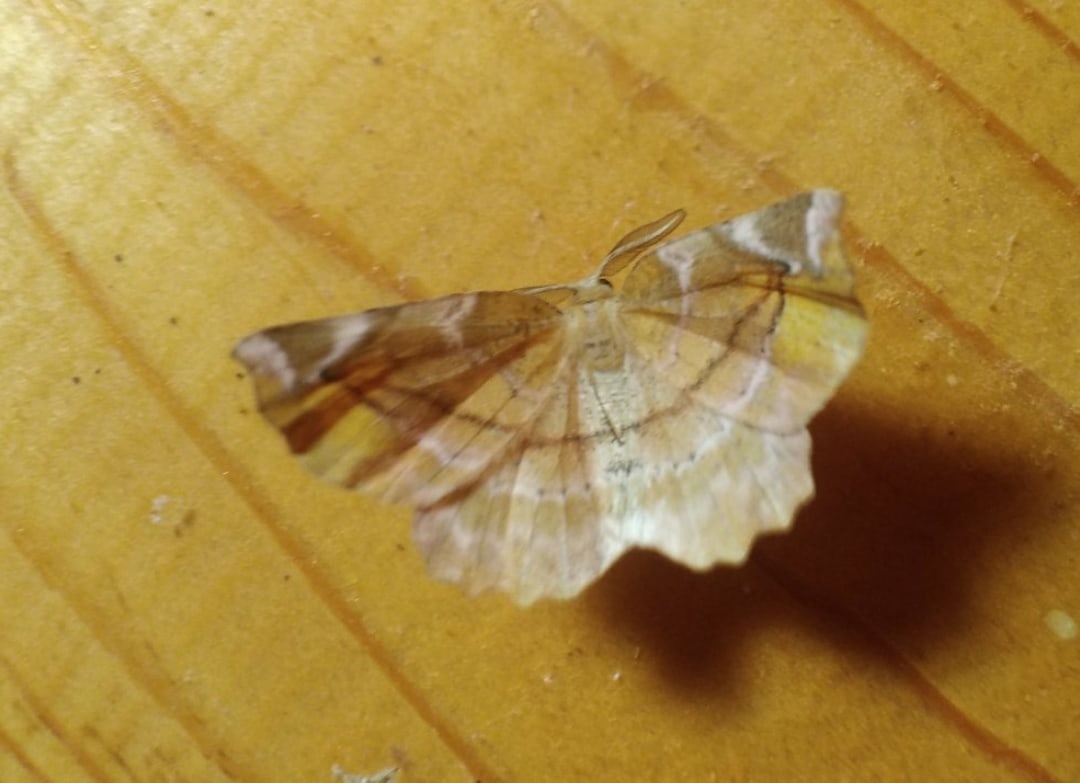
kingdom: Animalia
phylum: Arthropoda
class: Insecta
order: Lepidoptera
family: Geometridae
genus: Apeira
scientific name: Apeira syringaria
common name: Lilac beauty
